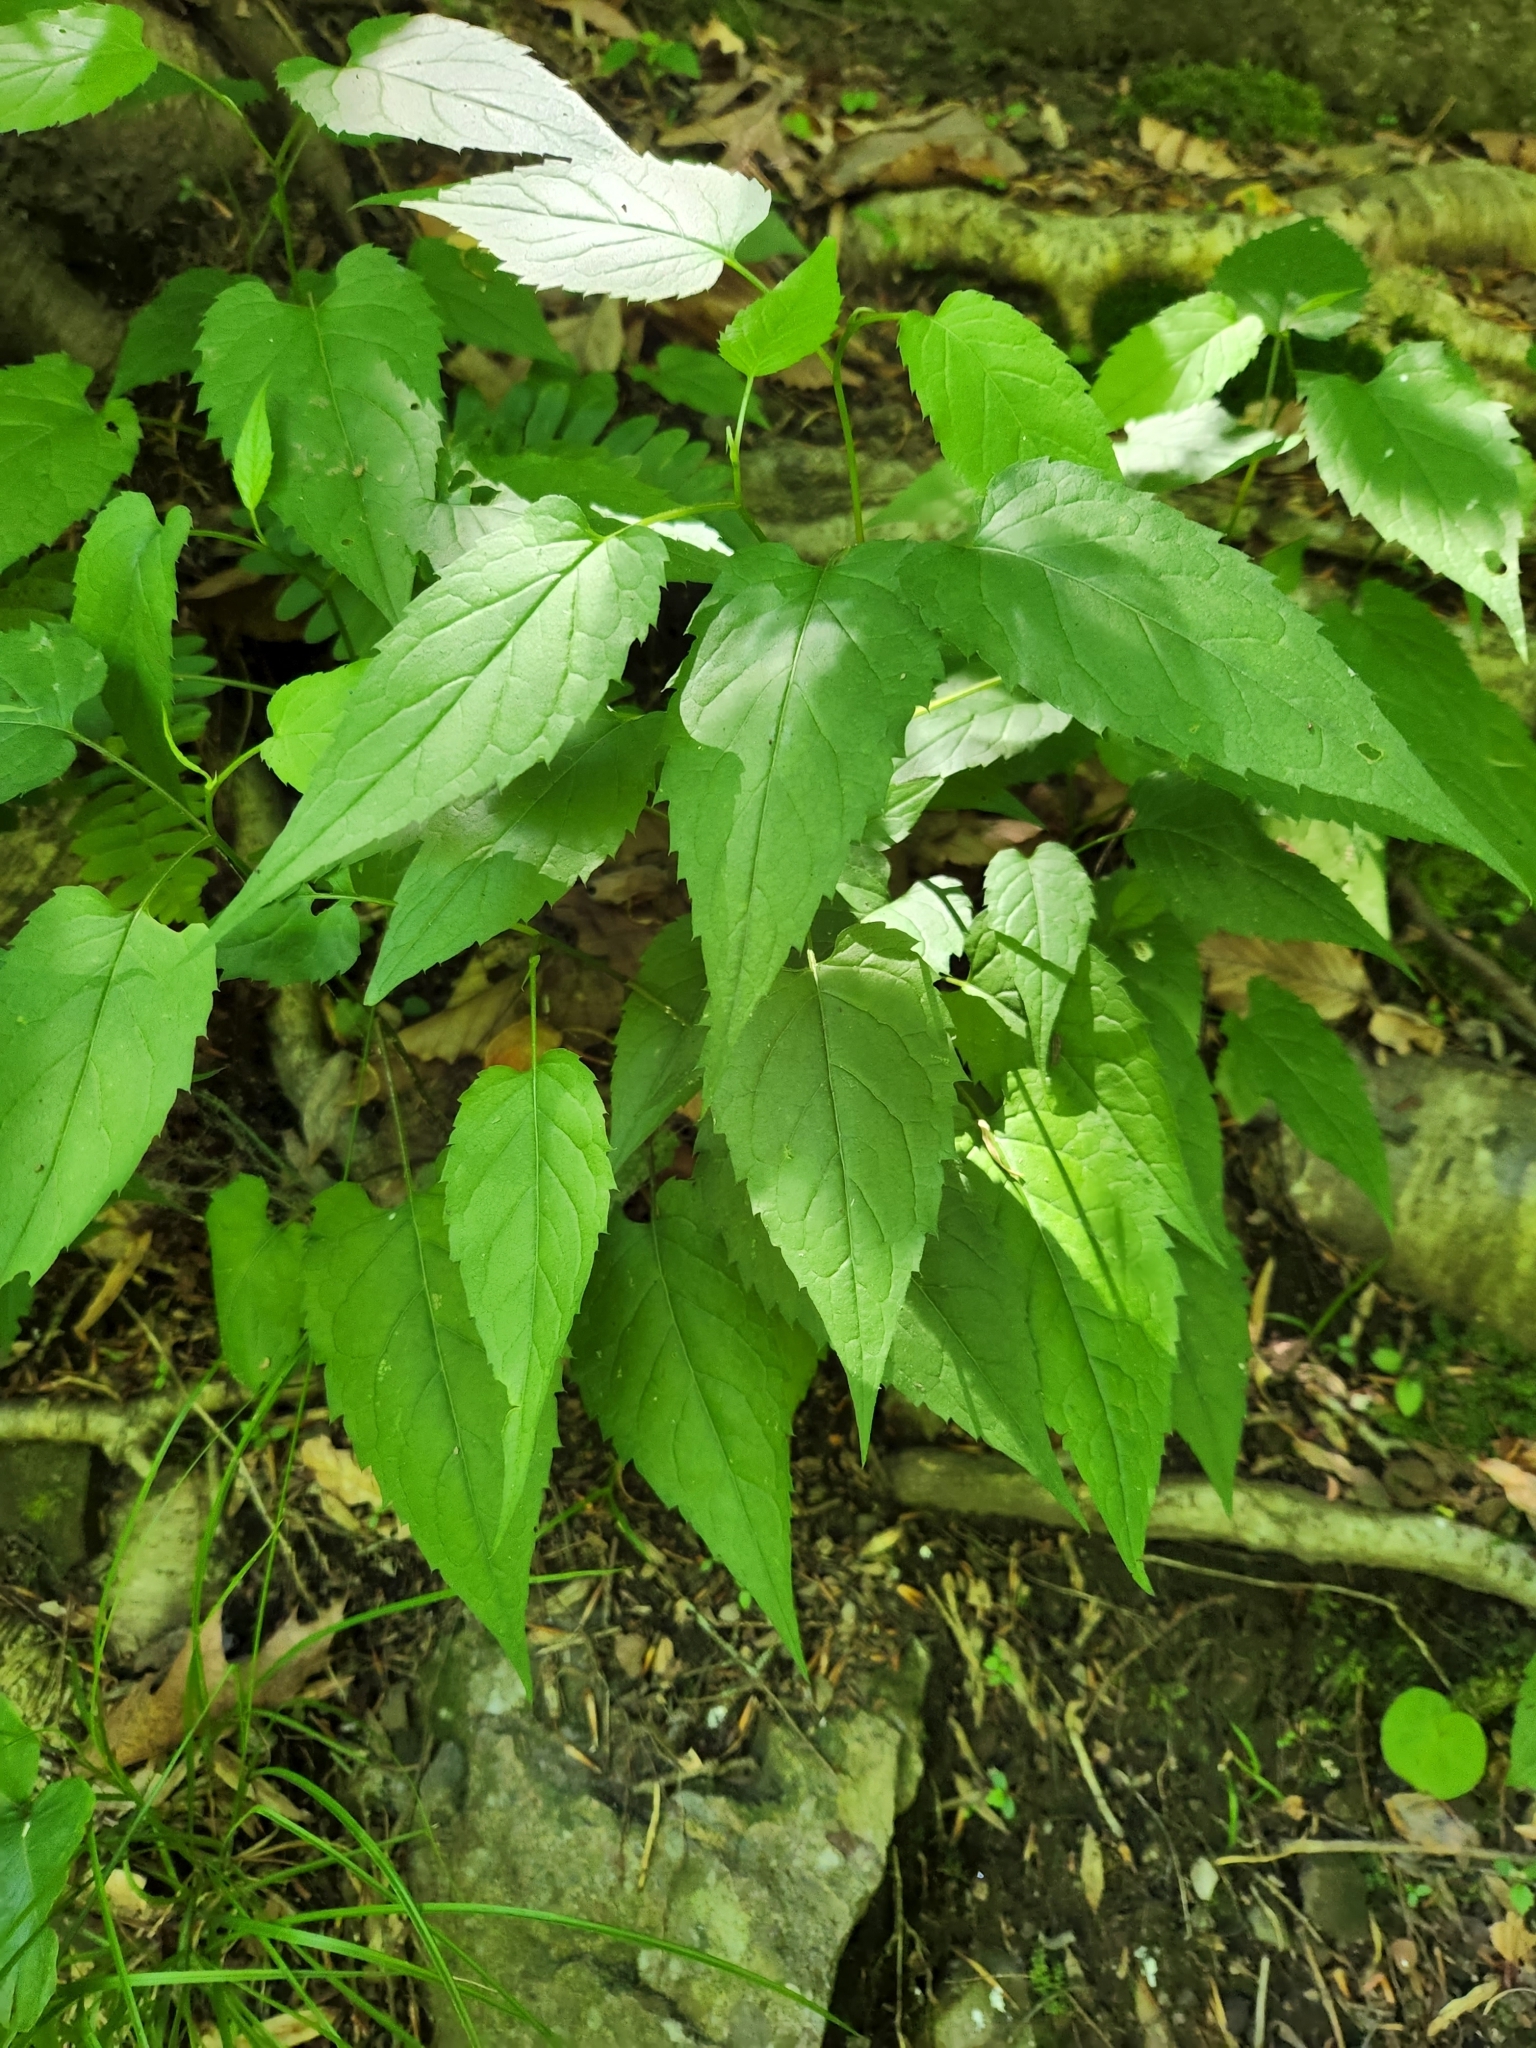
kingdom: Plantae
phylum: Tracheophyta
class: Magnoliopsida
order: Asterales
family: Asteraceae
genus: Eurybia
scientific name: Eurybia divaricata
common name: White wood aster
